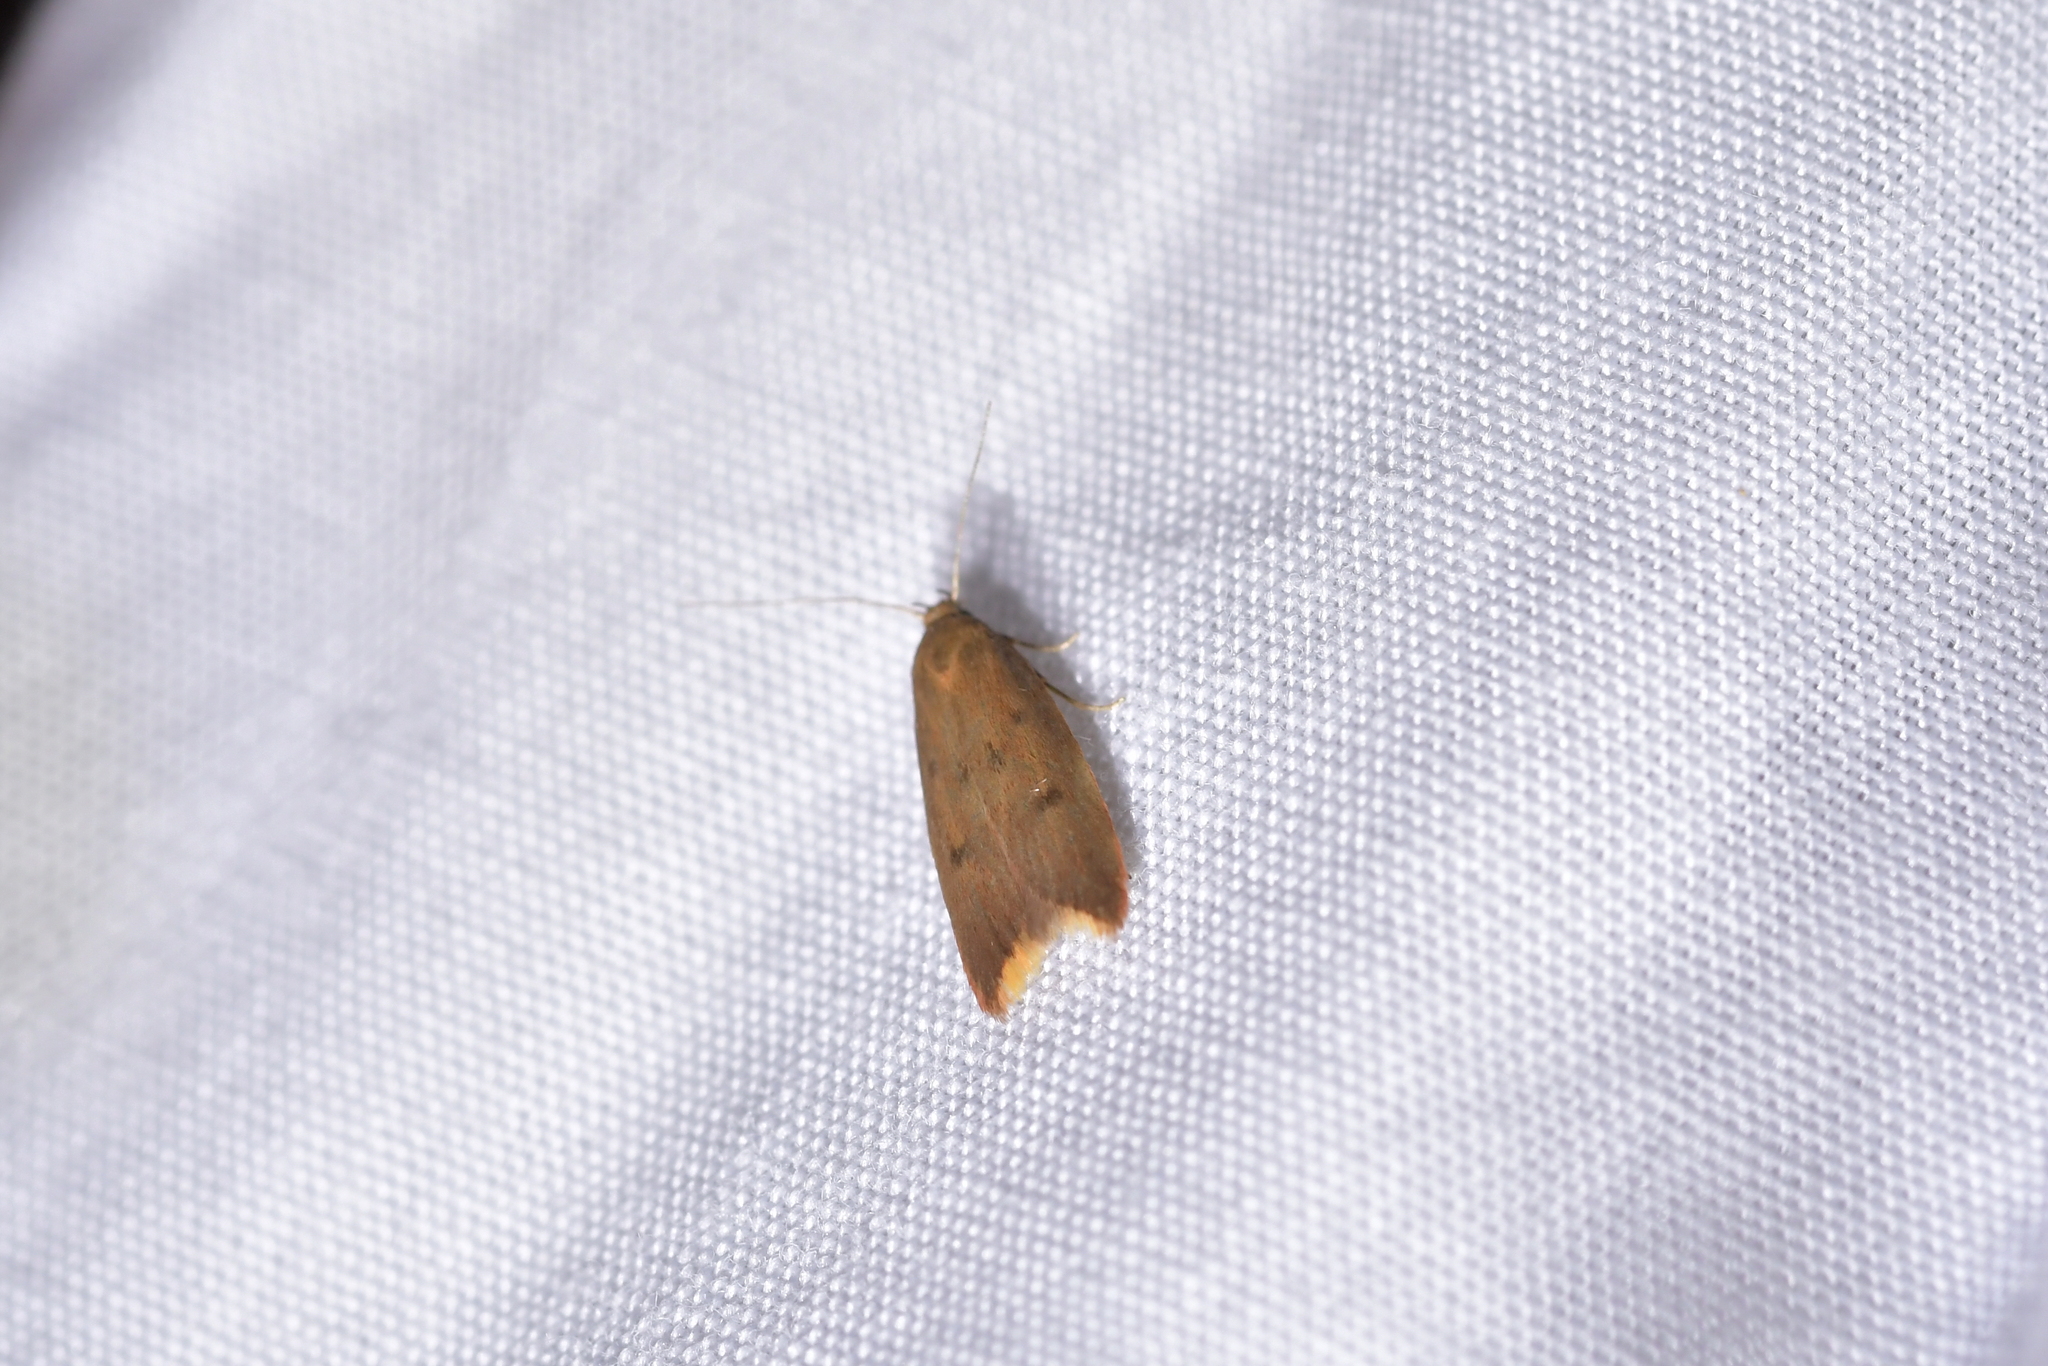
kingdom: Animalia
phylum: Arthropoda
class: Insecta
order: Lepidoptera
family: Oecophoridae
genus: Tachystola
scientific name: Tachystola acroxantha
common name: Ruddy streak
